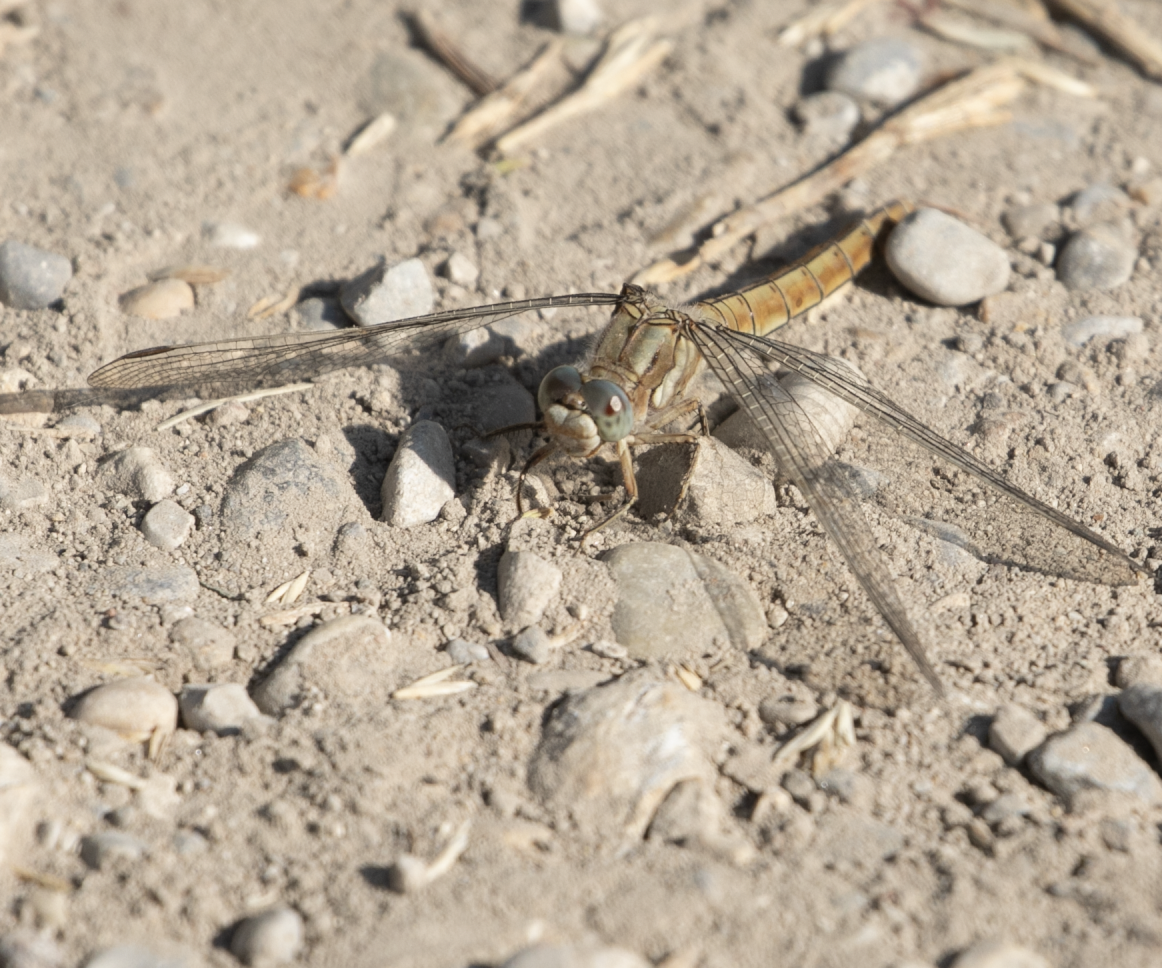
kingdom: Animalia
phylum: Arthropoda
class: Insecta
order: Odonata
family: Libellulidae
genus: Orthetrum
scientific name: Orthetrum brunneum
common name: Southern skimmer
